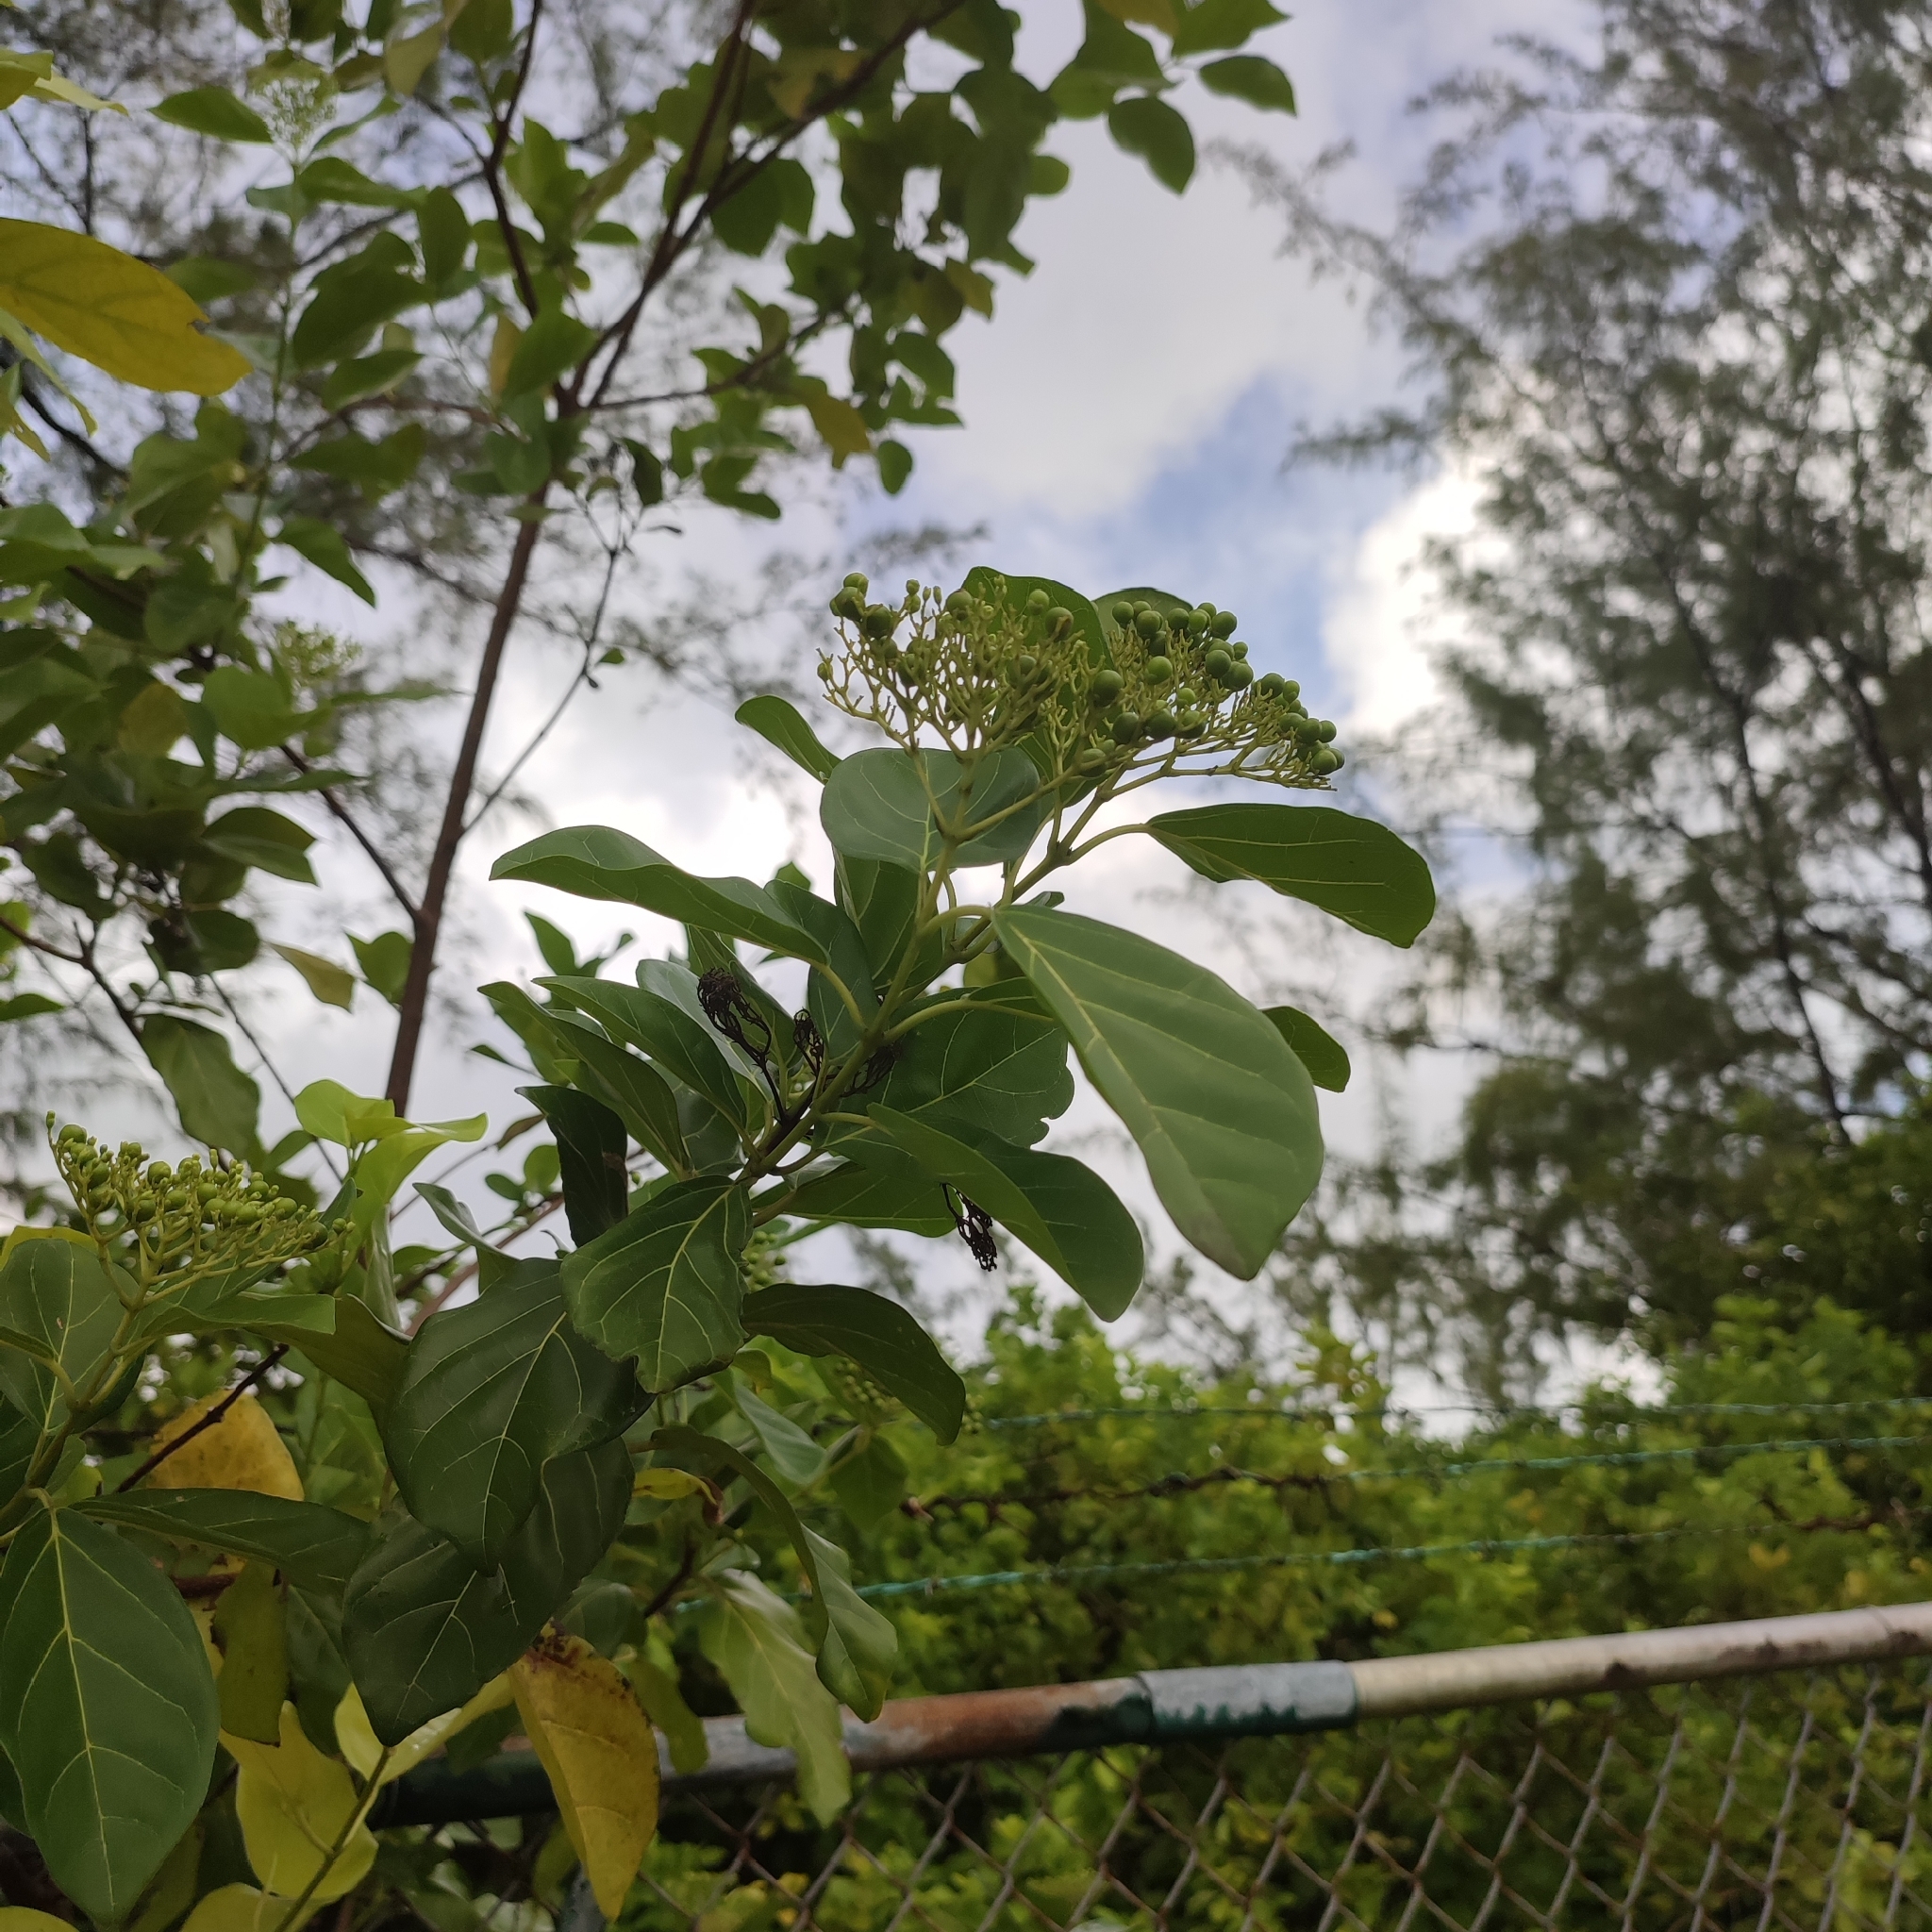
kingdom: Plantae
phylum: Tracheophyta
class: Magnoliopsida
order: Lamiales
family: Lamiaceae
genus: Premna
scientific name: Premna serratifolia
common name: Bastard guelder
